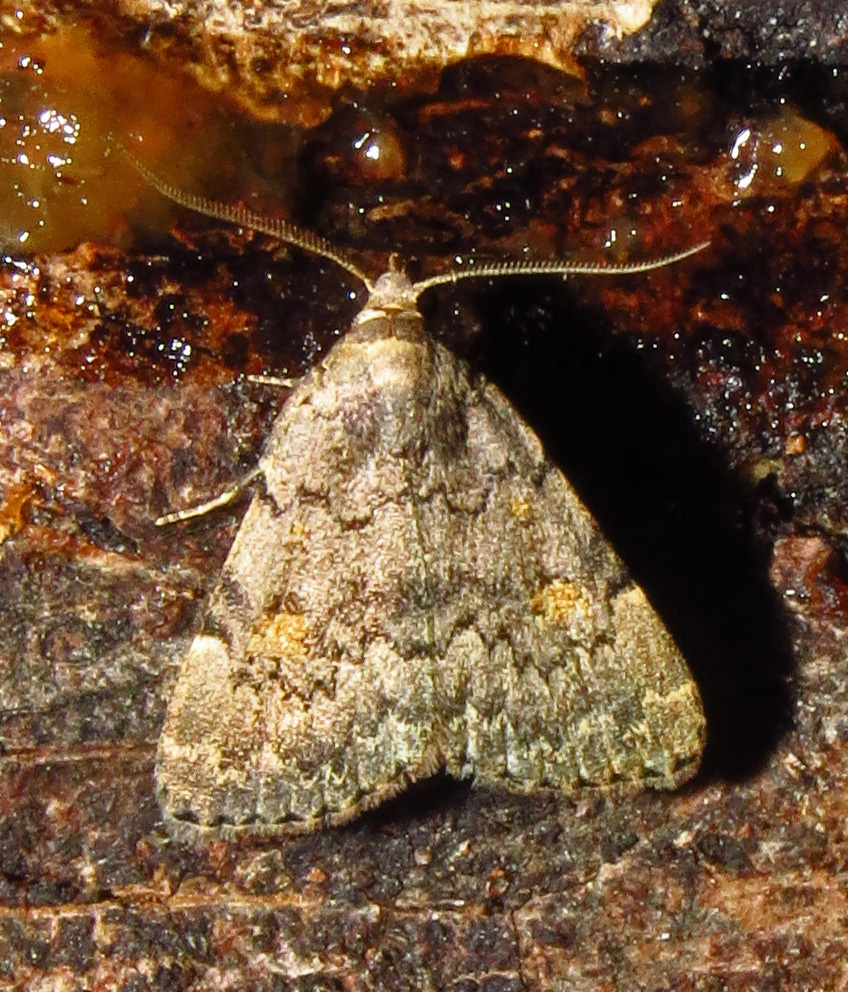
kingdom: Animalia
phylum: Arthropoda
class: Insecta
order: Lepidoptera
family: Erebidae
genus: Idia
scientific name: Idia aemula
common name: Common idia moth
